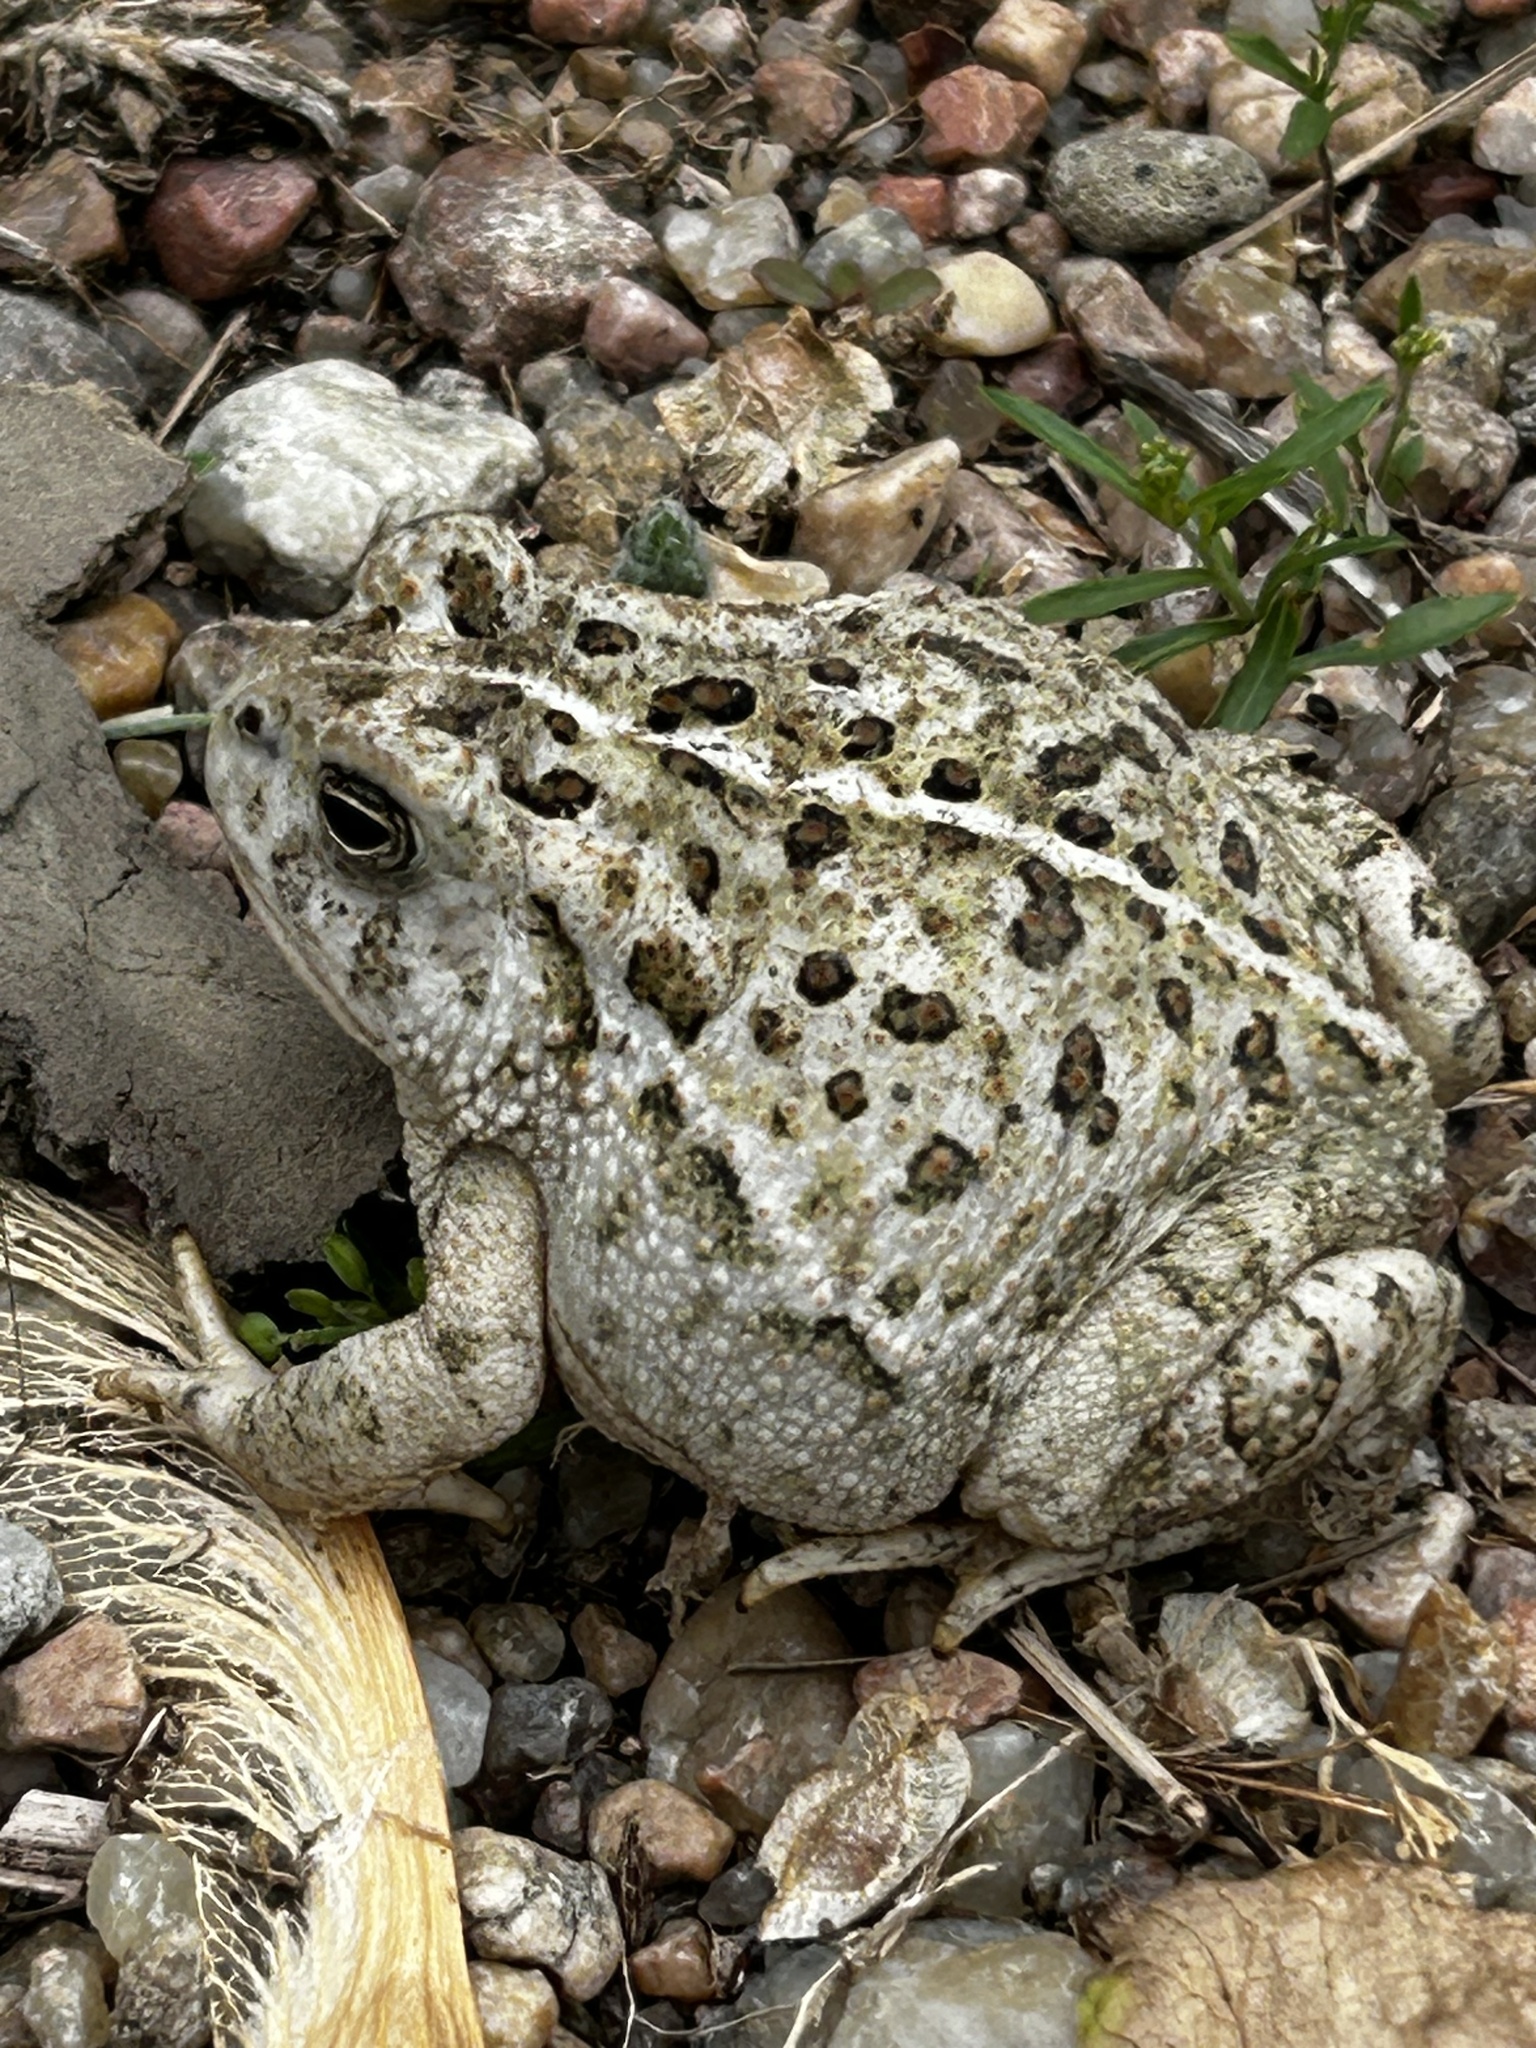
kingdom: Animalia
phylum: Chordata
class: Amphibia
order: Anura
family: Bufonidae
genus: Anaxyrus
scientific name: Anaxyrus woodhousii
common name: Woodhouse's toad
